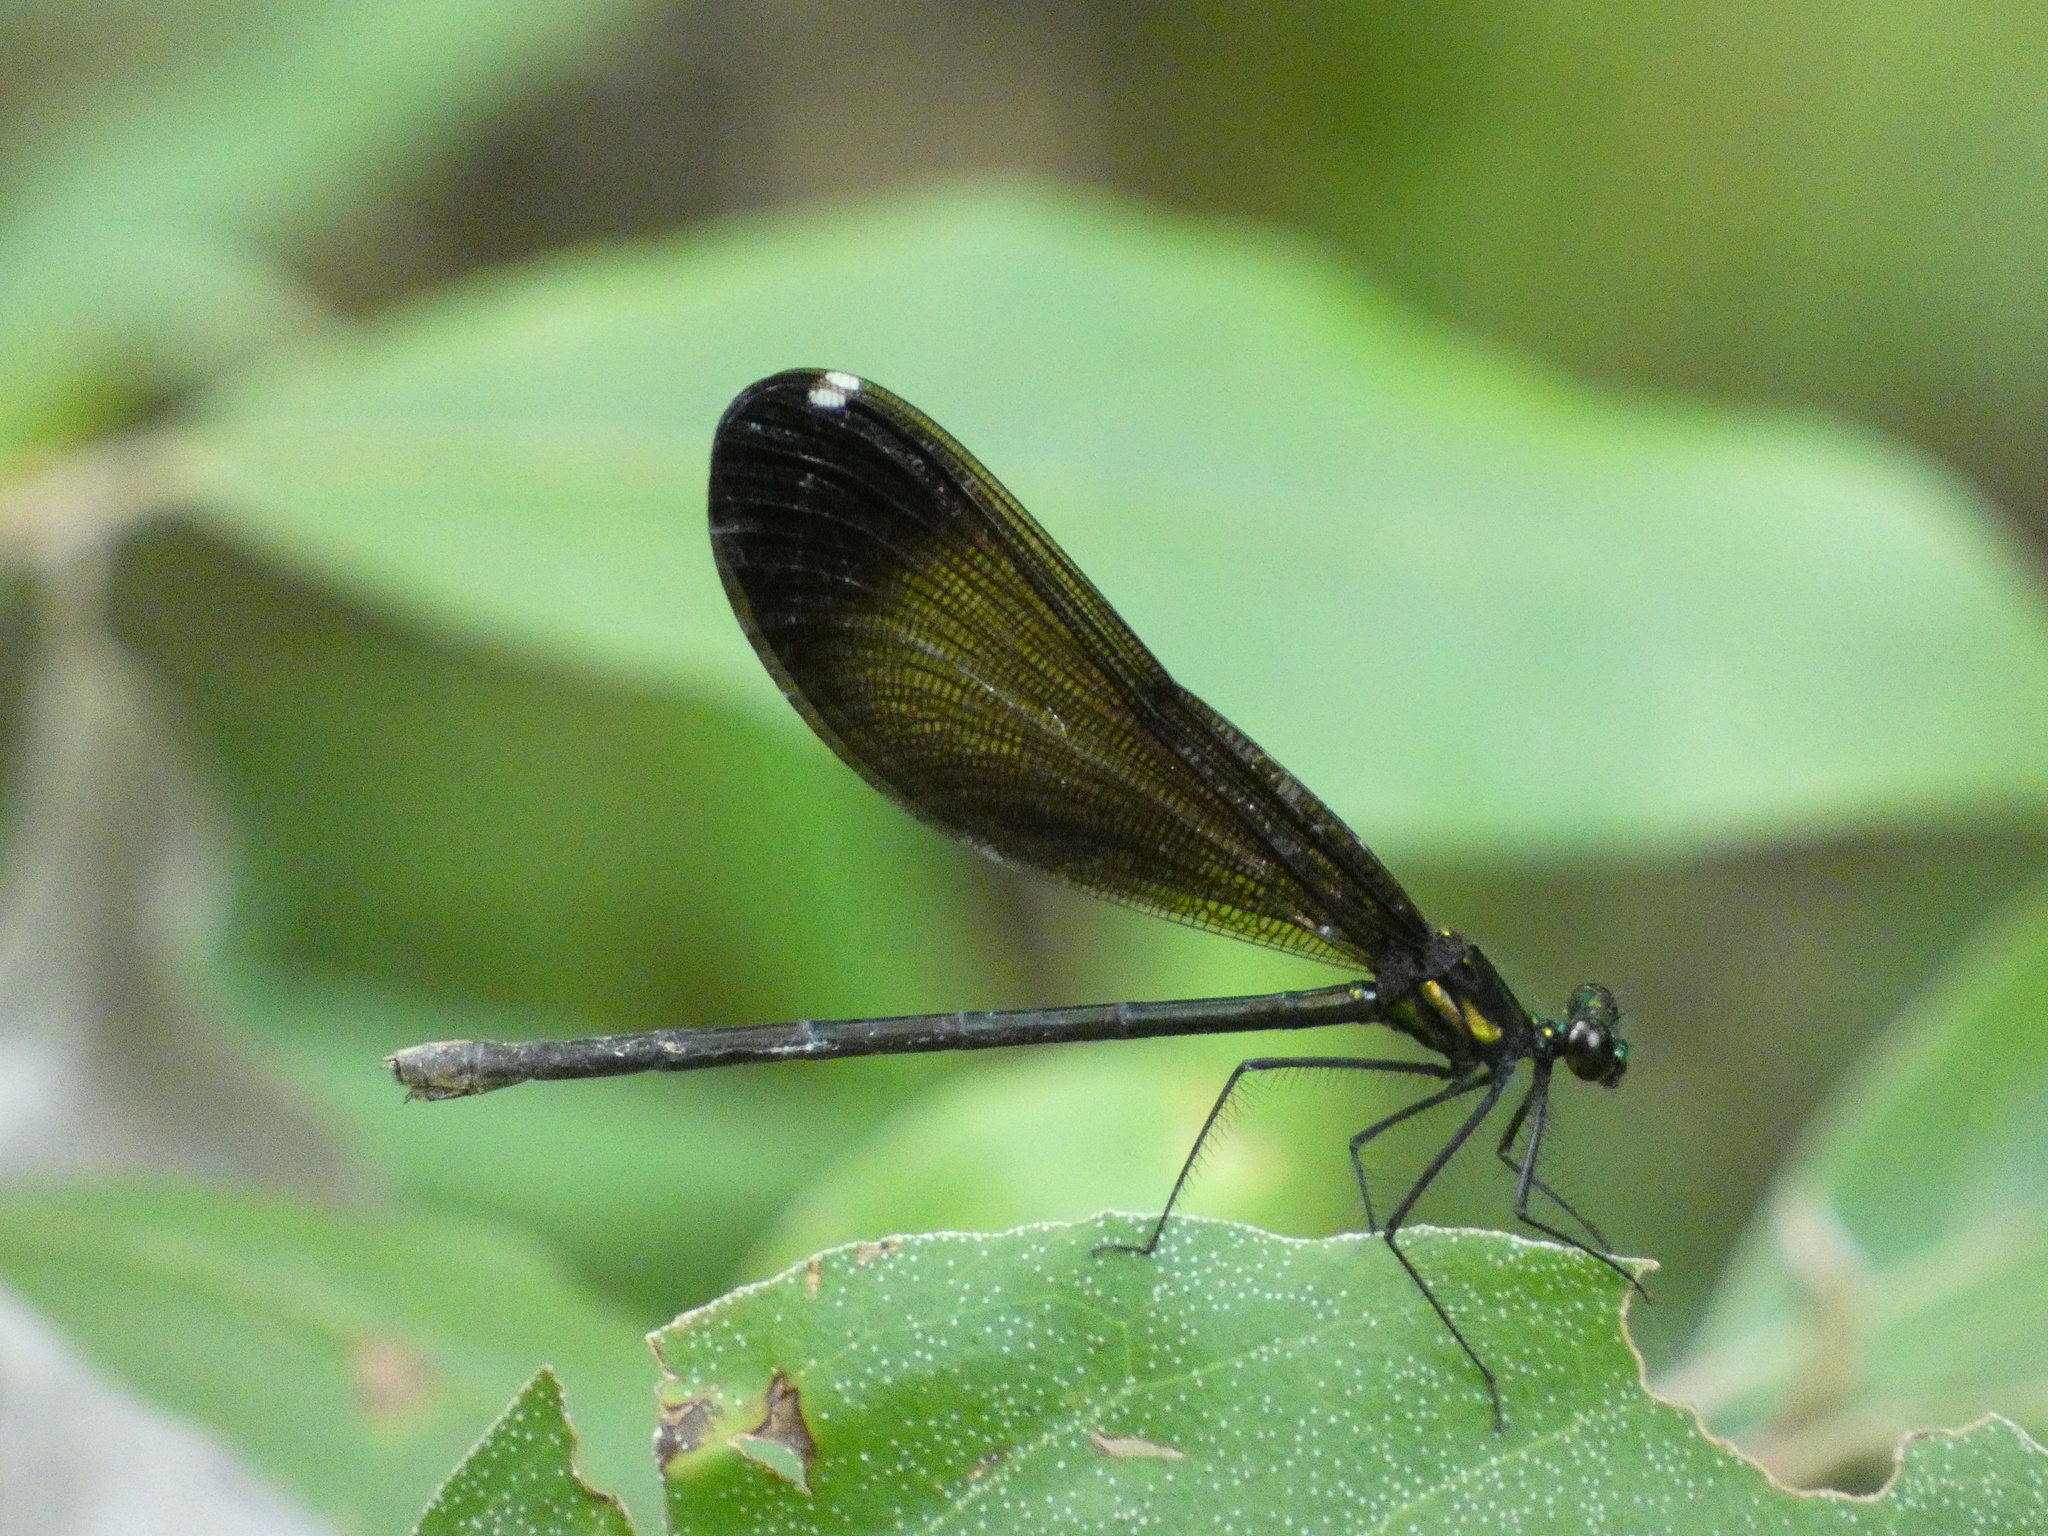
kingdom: Animalia
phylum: Arthropoda
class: Insecta
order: Odonata
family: Calopterygidae
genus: Calopteryx
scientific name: Calopteryx maculata
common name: Ebony jewelwing
